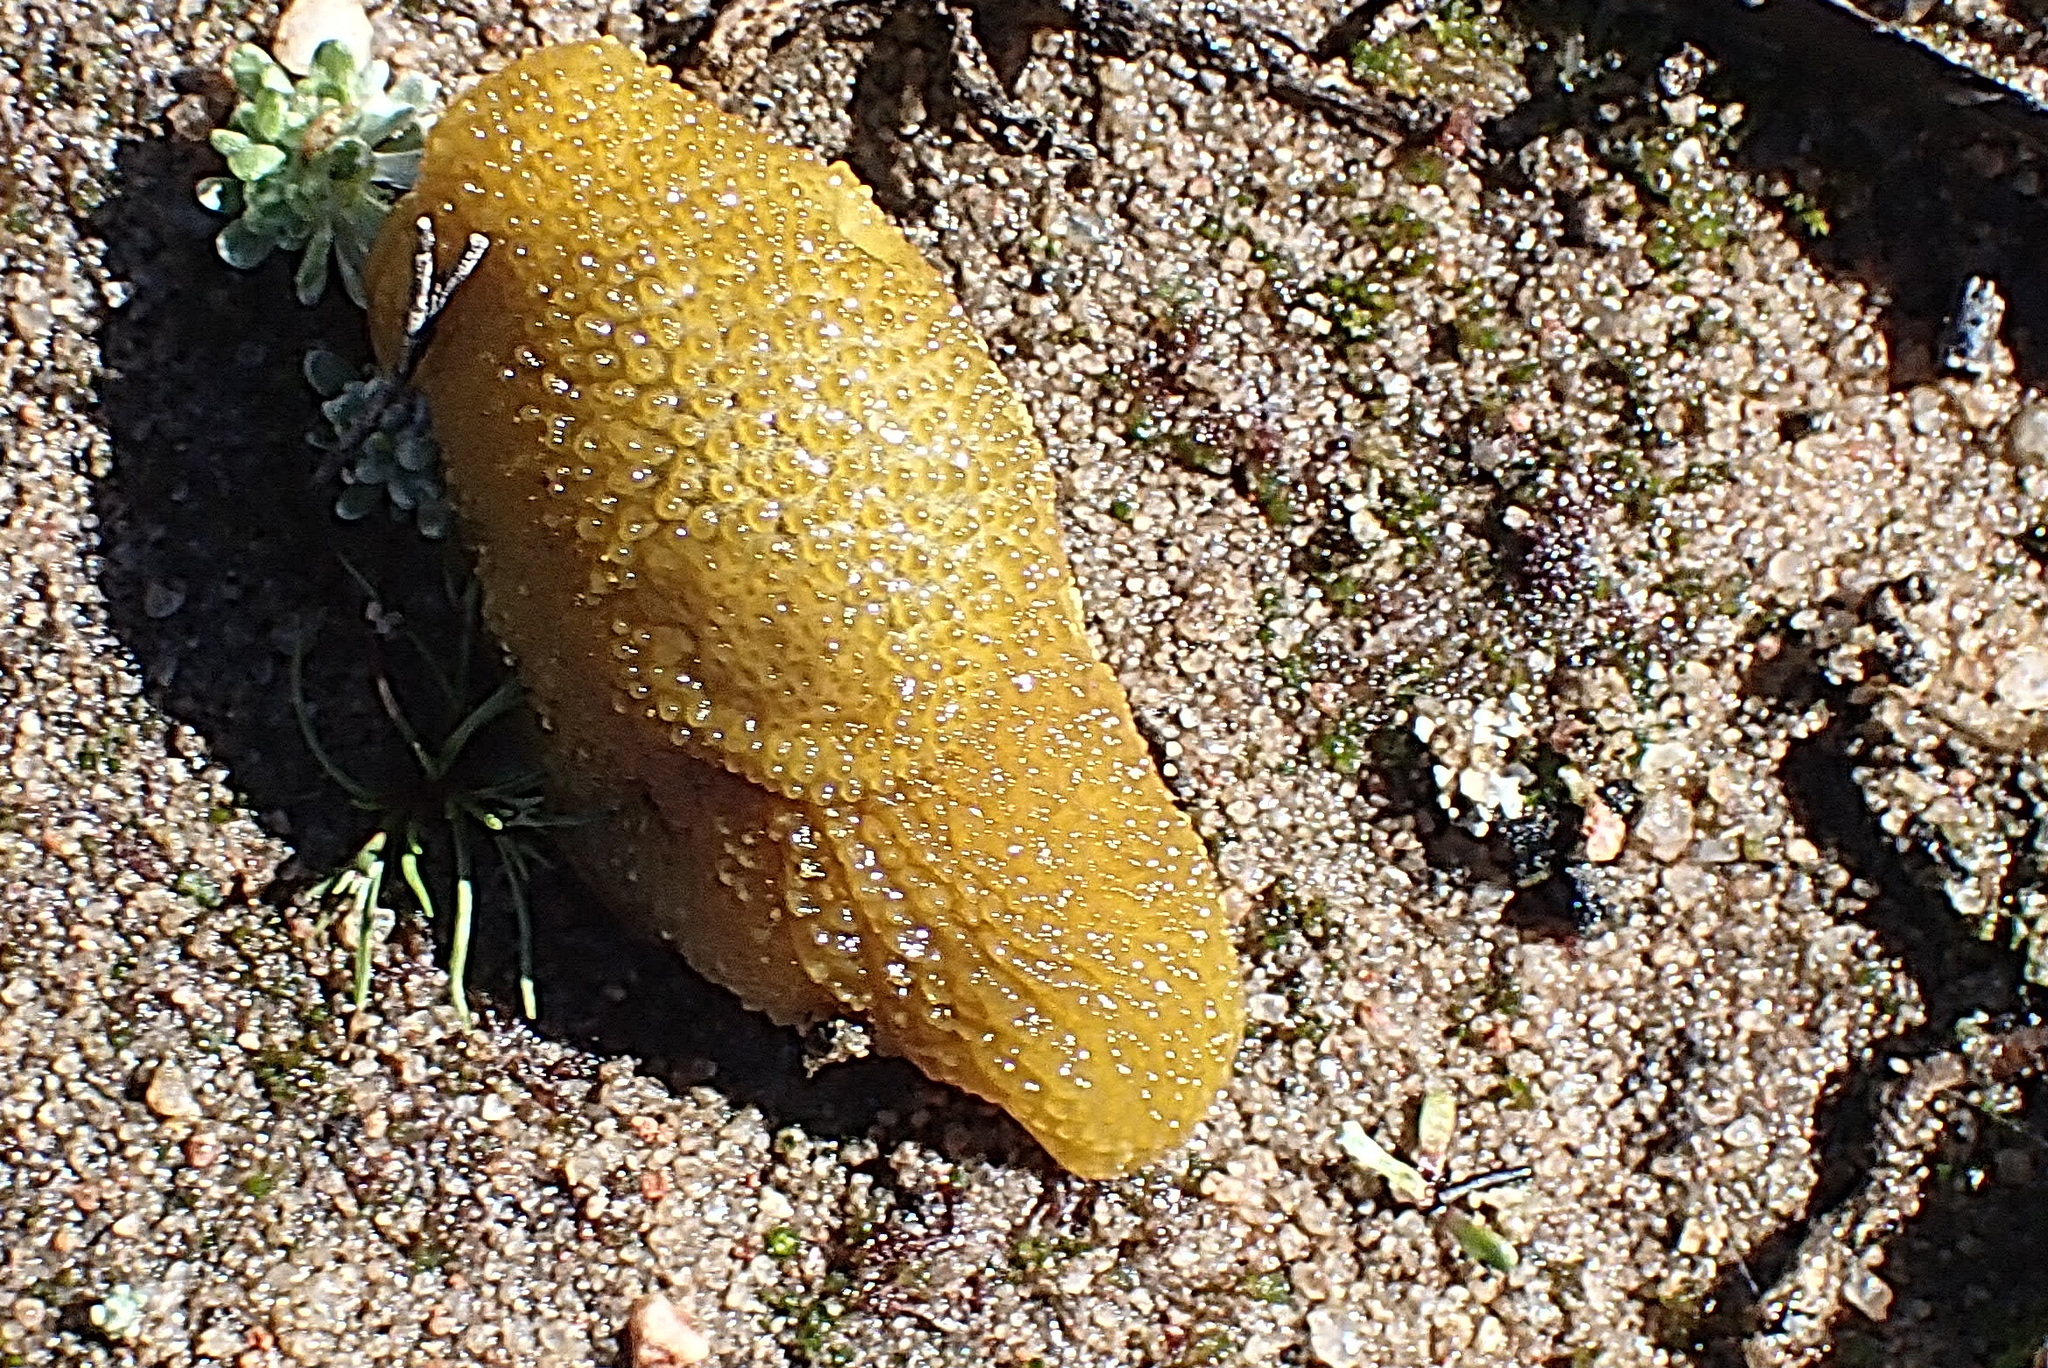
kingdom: Animalia
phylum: Mollusca
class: Gastropoda
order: Stylommatophora
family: Oopeltidae
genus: Oopelta
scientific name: Oopelta granulosa
